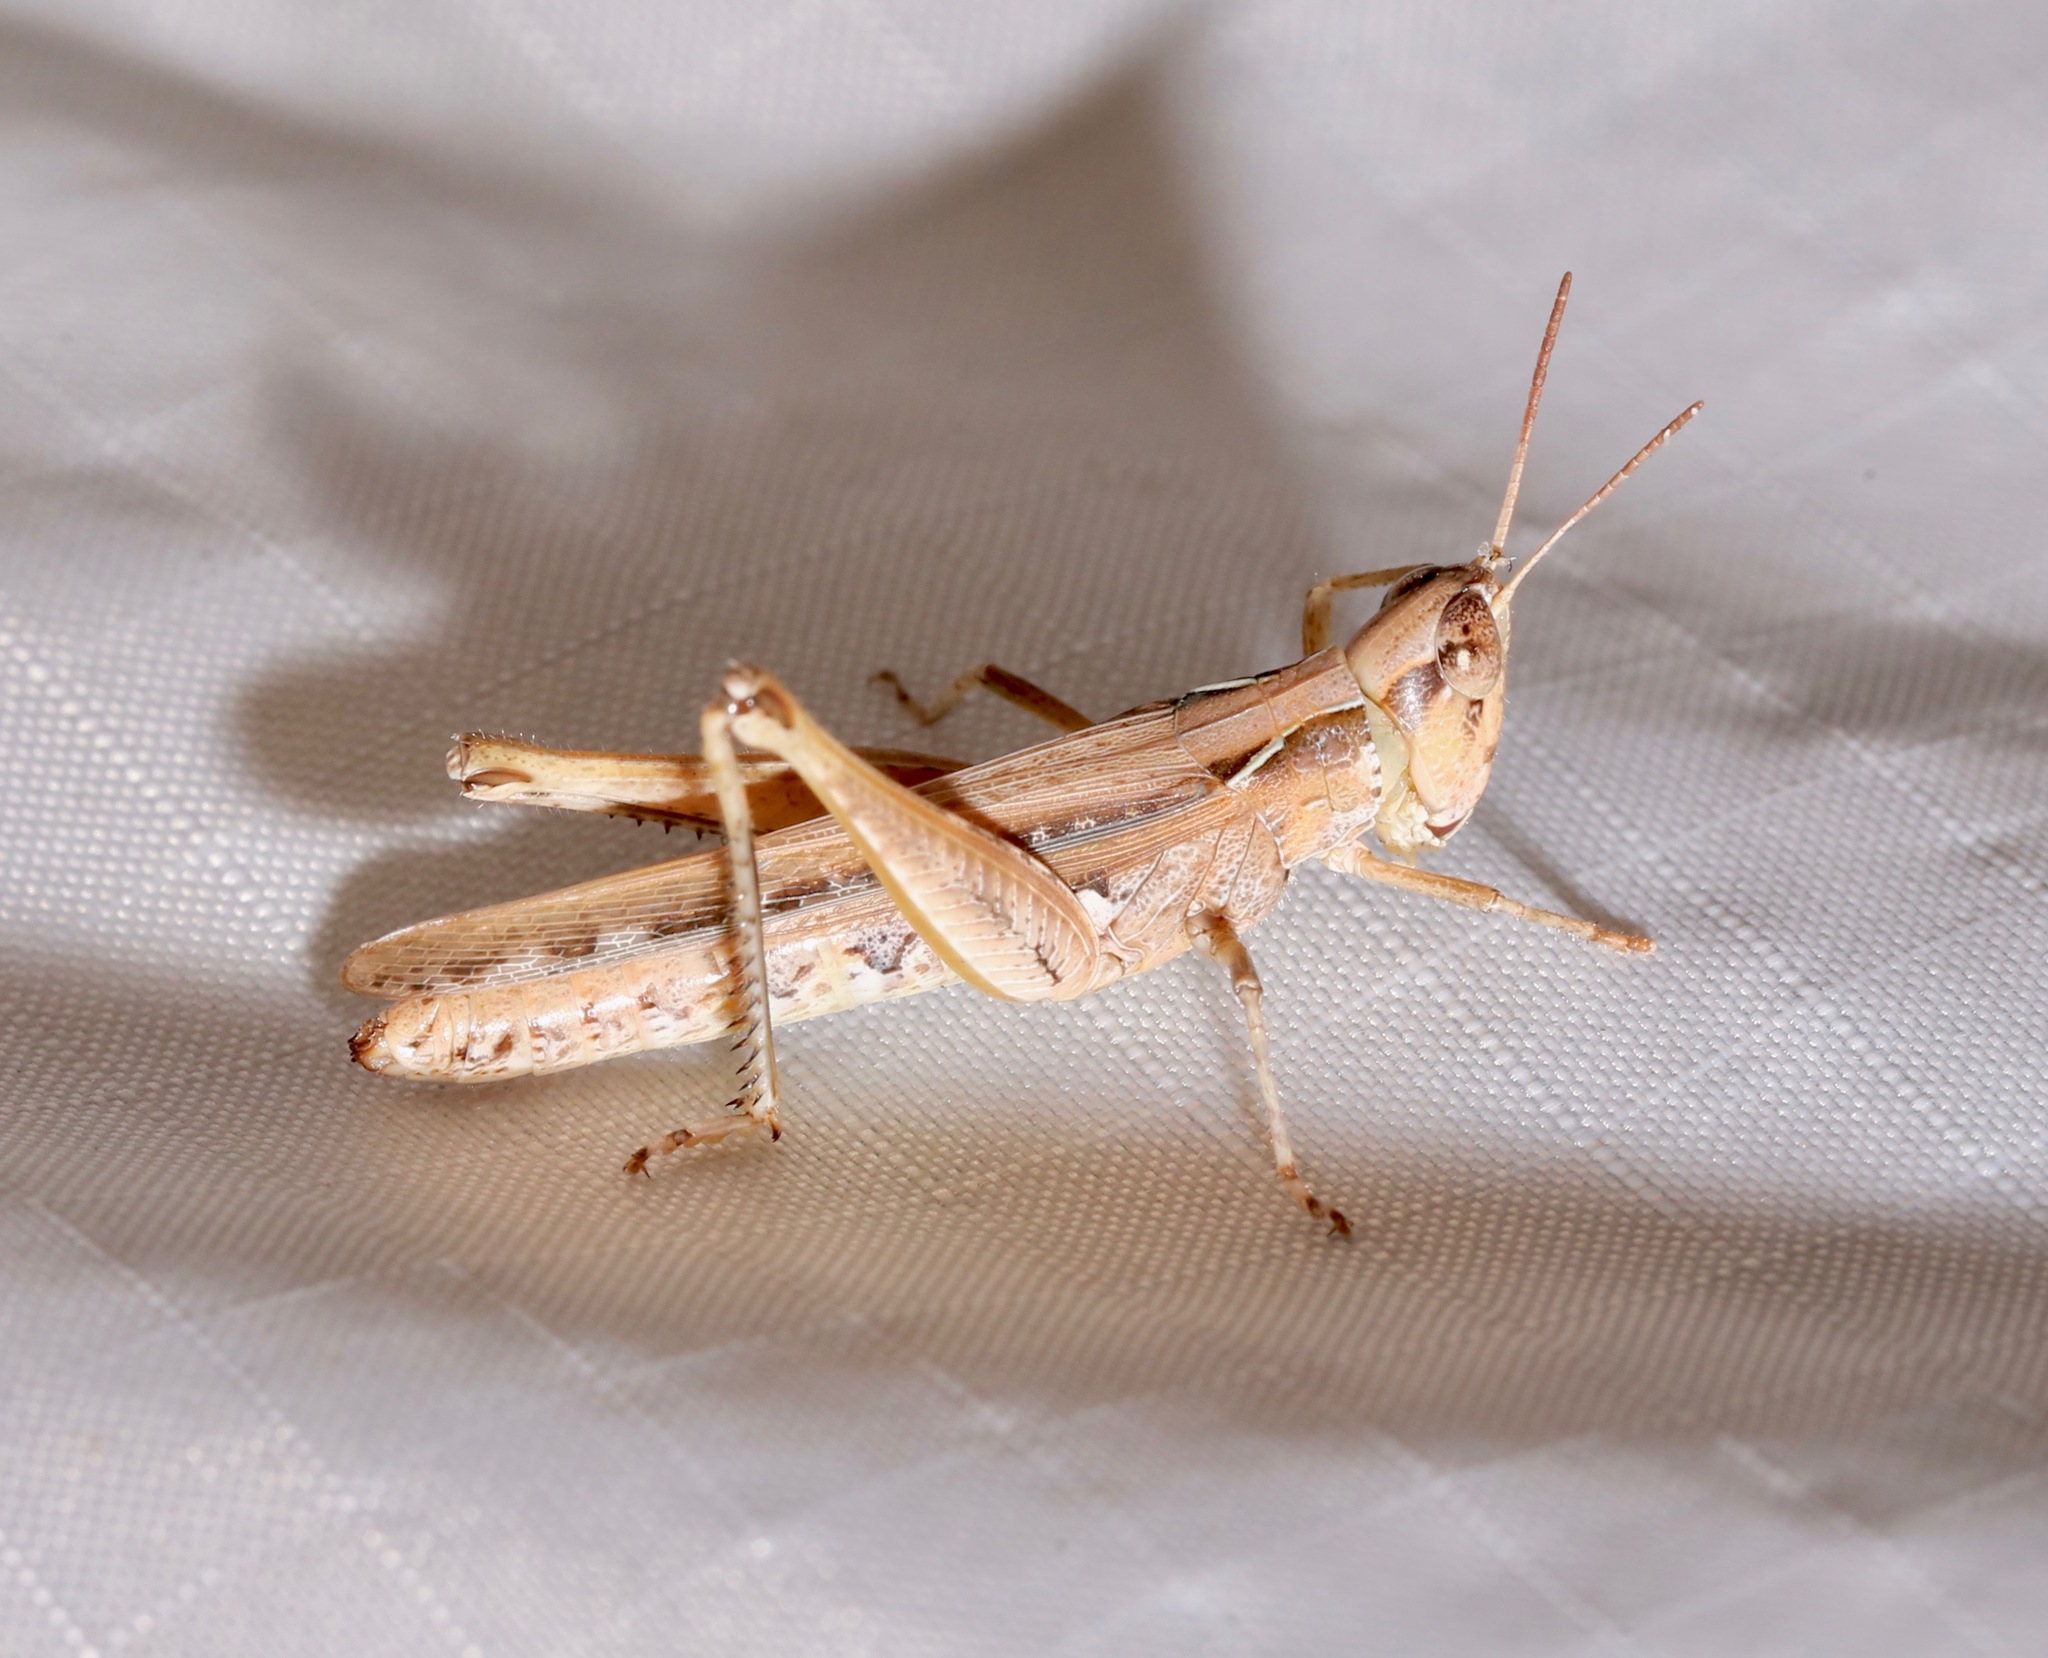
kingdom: Animalia
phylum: Arthropoda
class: Insecta
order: Orthoptera
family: Acrididae
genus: Orphulella
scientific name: Orphulella pelidna
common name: Spotted-wing grasshopper
